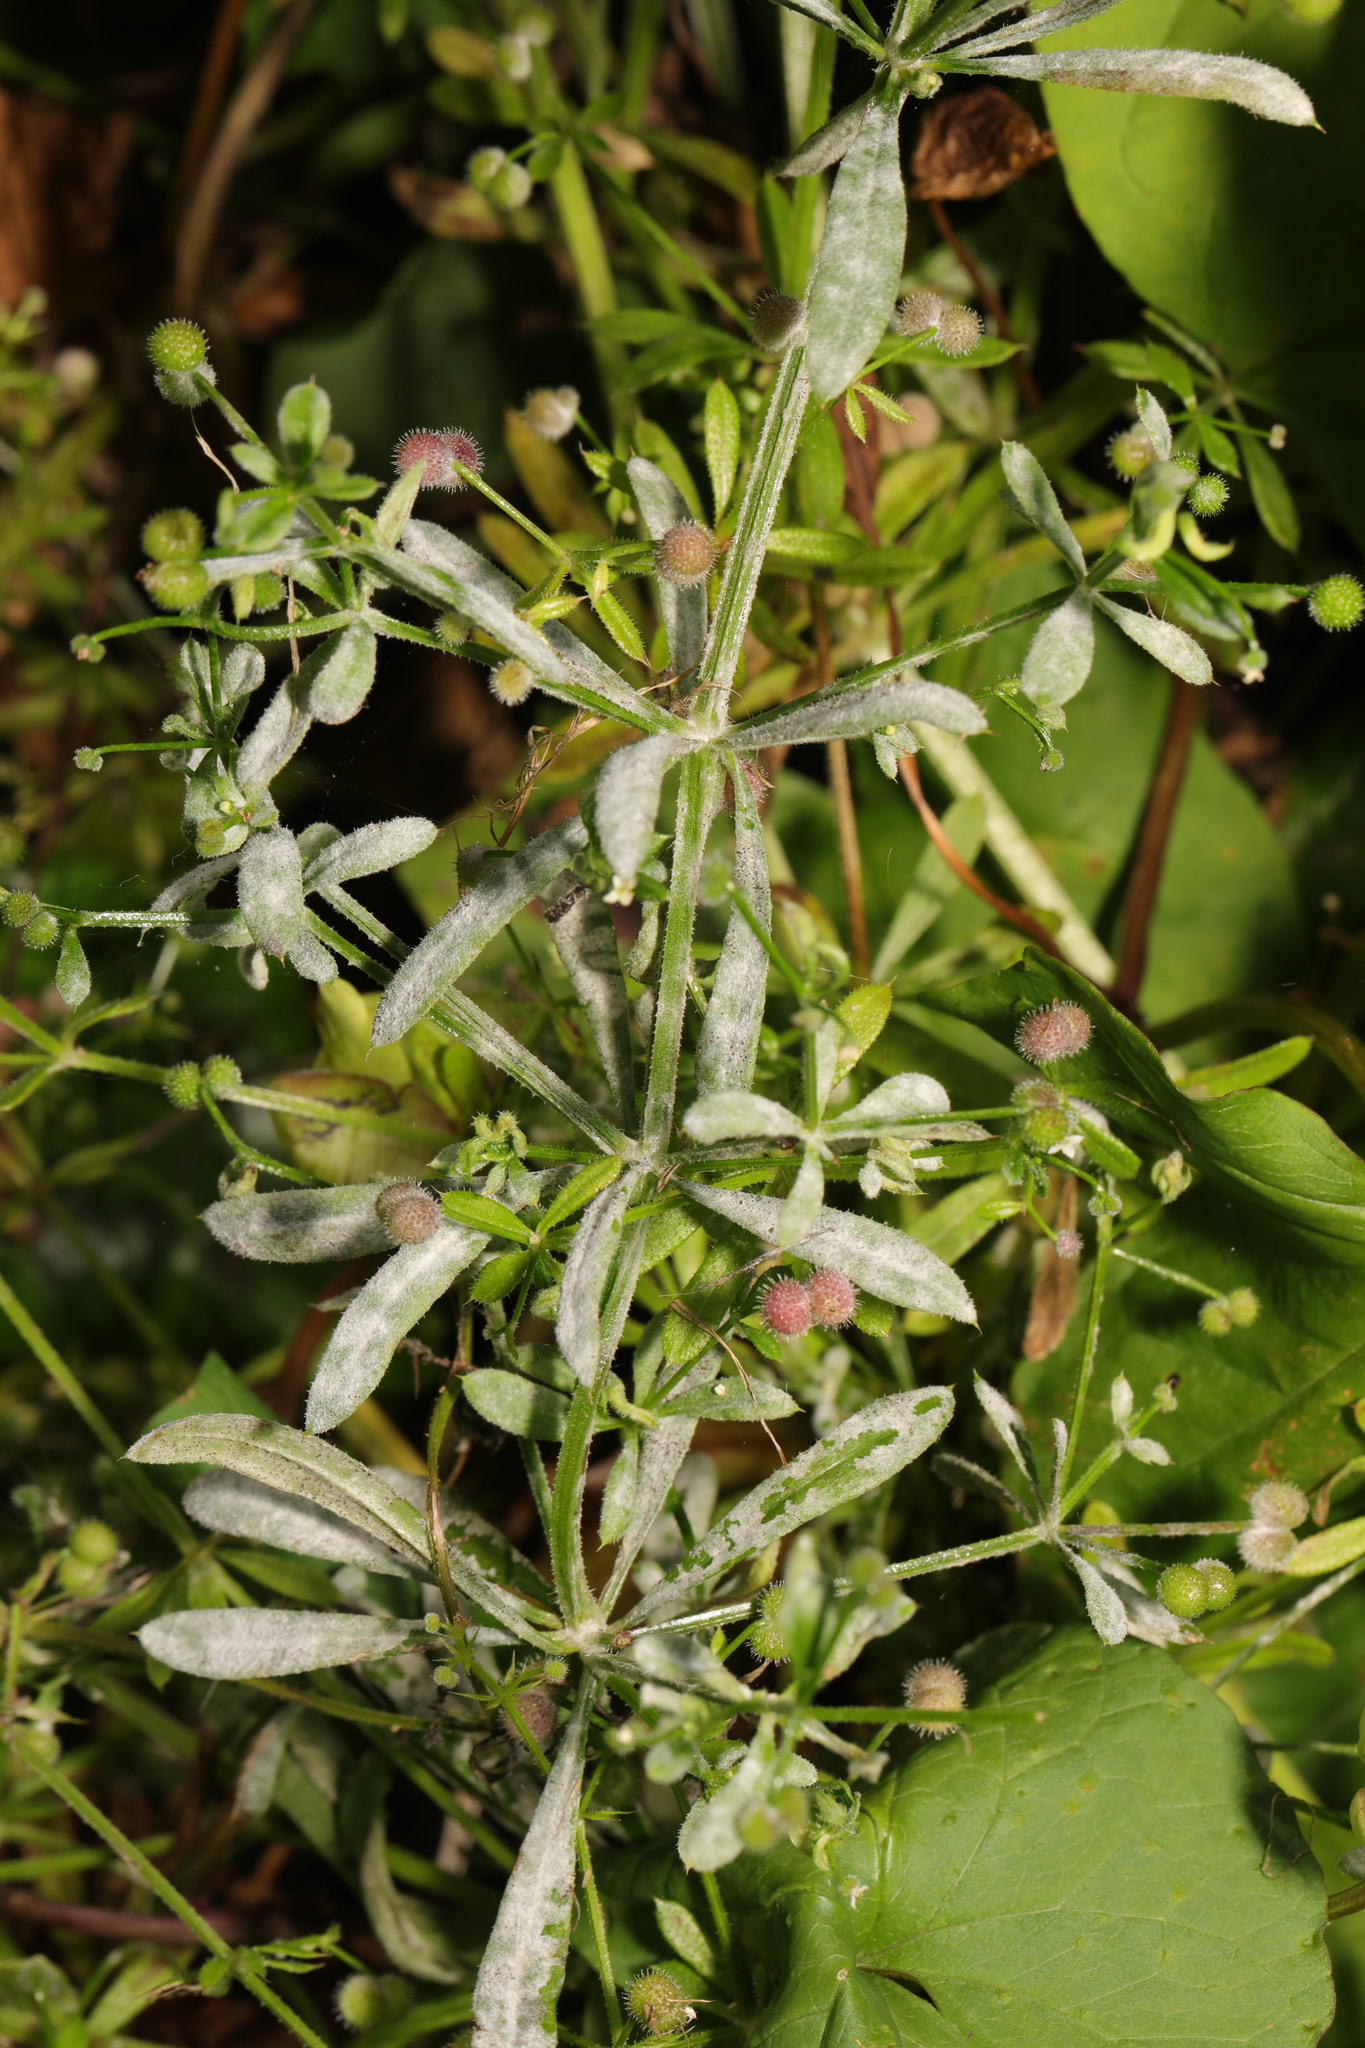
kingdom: Plantae
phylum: Tracheophyta
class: Magnoliopsida
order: Gentianales
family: Rubiaceae
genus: Galium
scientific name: Galium aparine
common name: Cleavers
